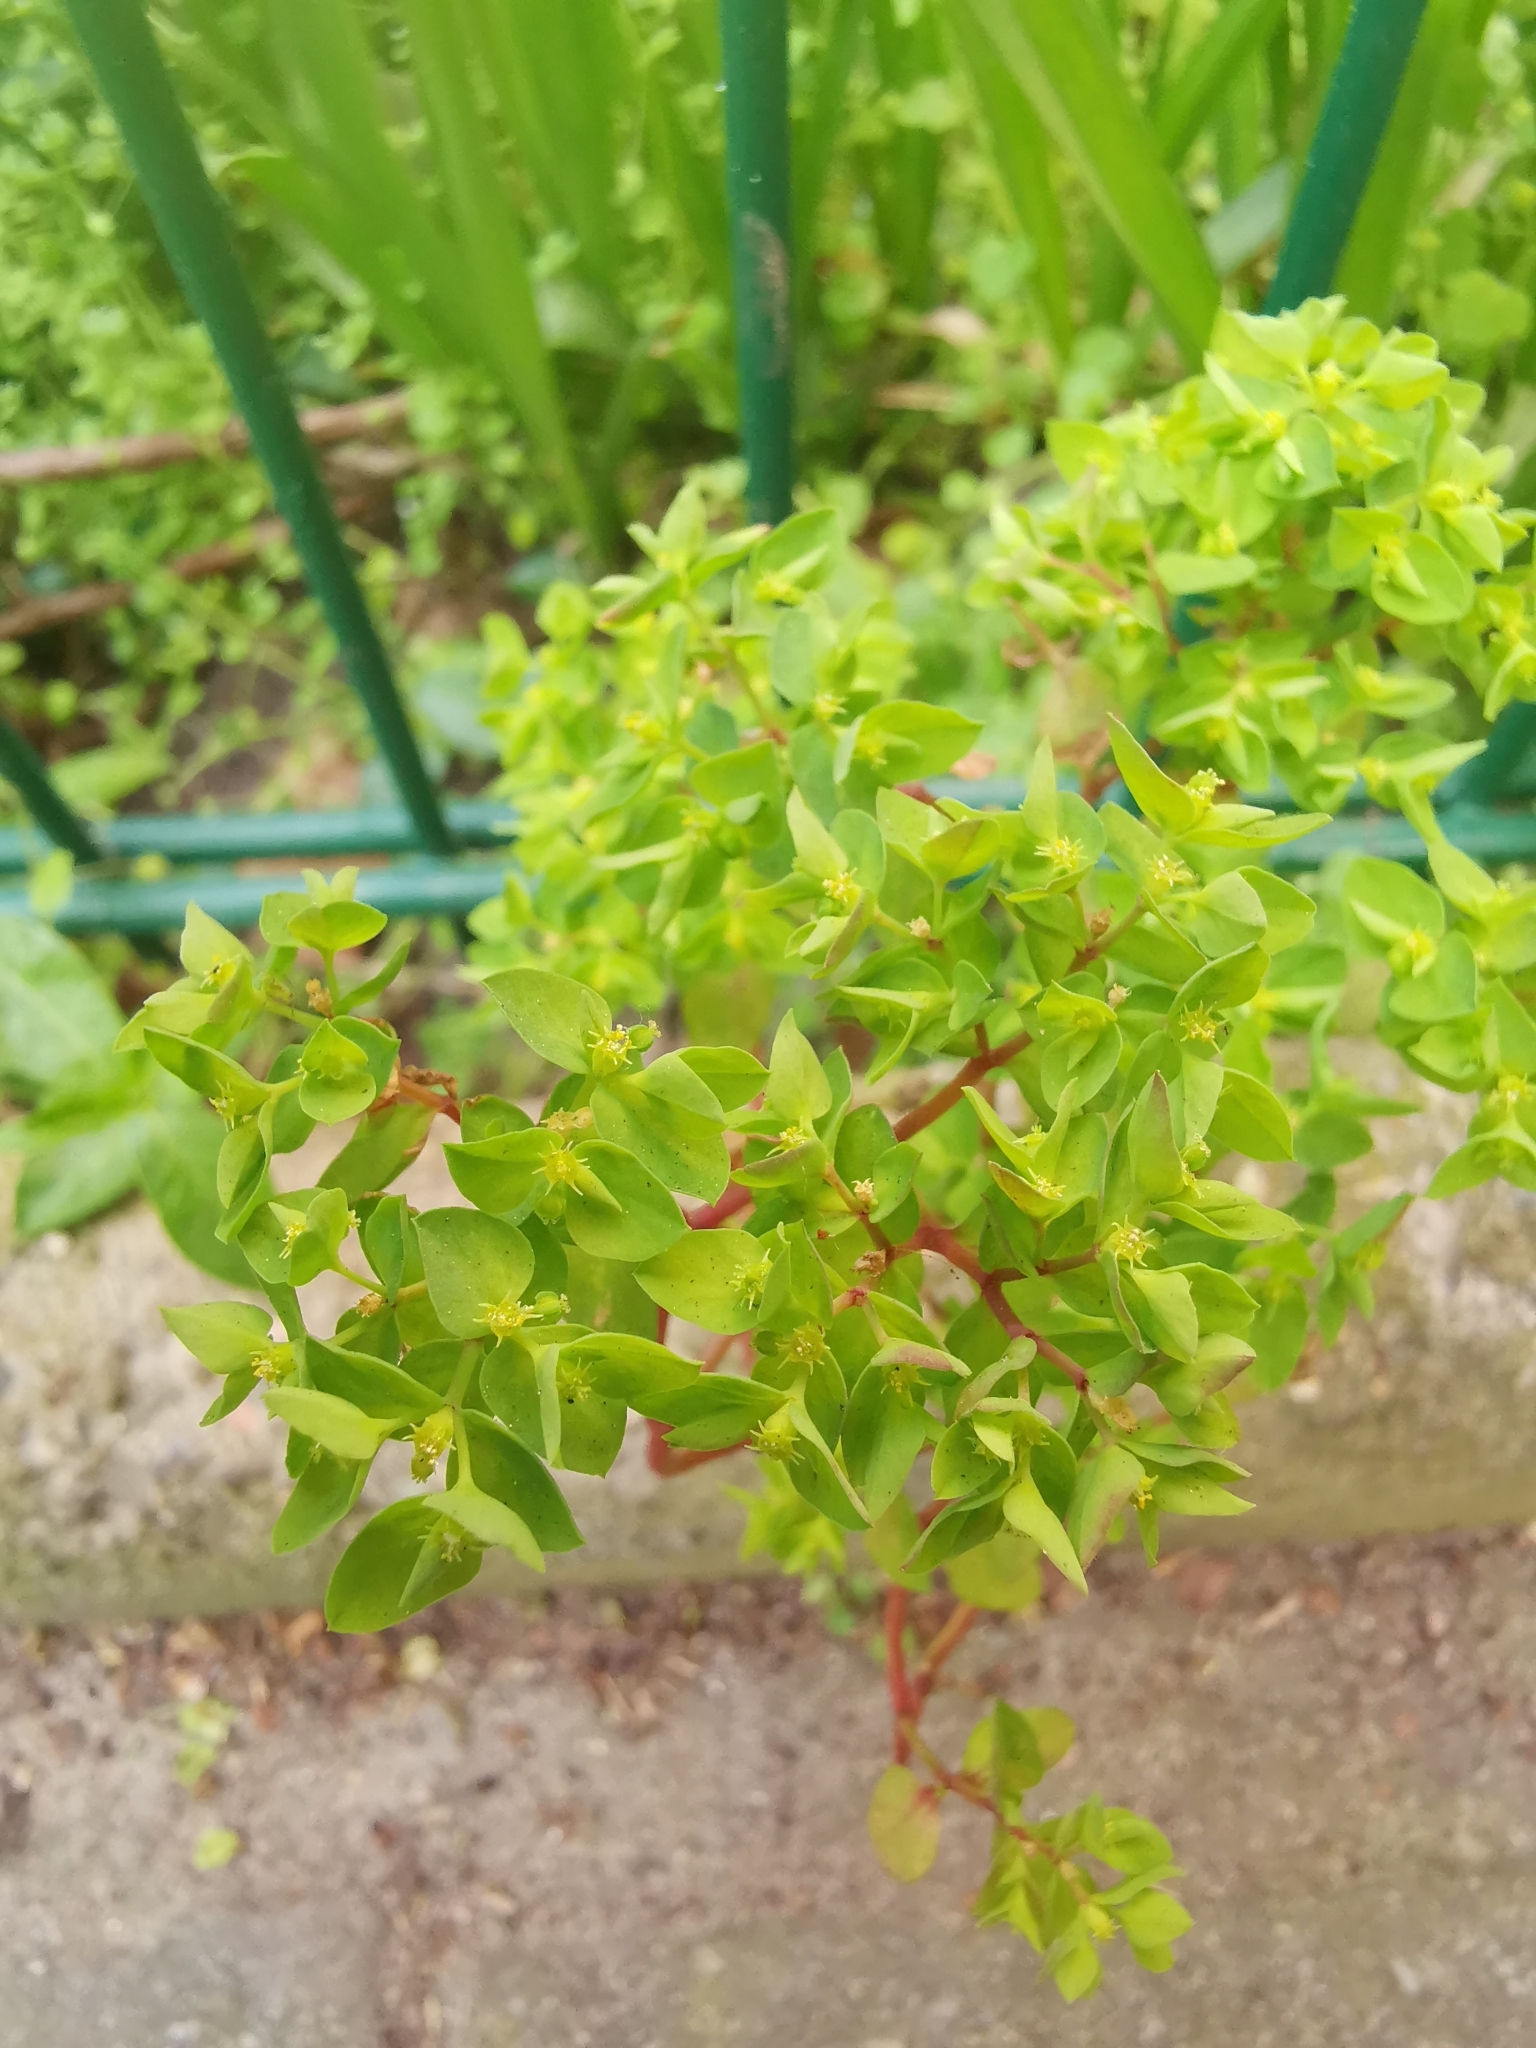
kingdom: Plantae
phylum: Tracheophyta
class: Magnoliopsida
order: Malpighiales
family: Euphorbiaceae
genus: Euphorbia
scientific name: Euphorbia peplus
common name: Petty spurge
